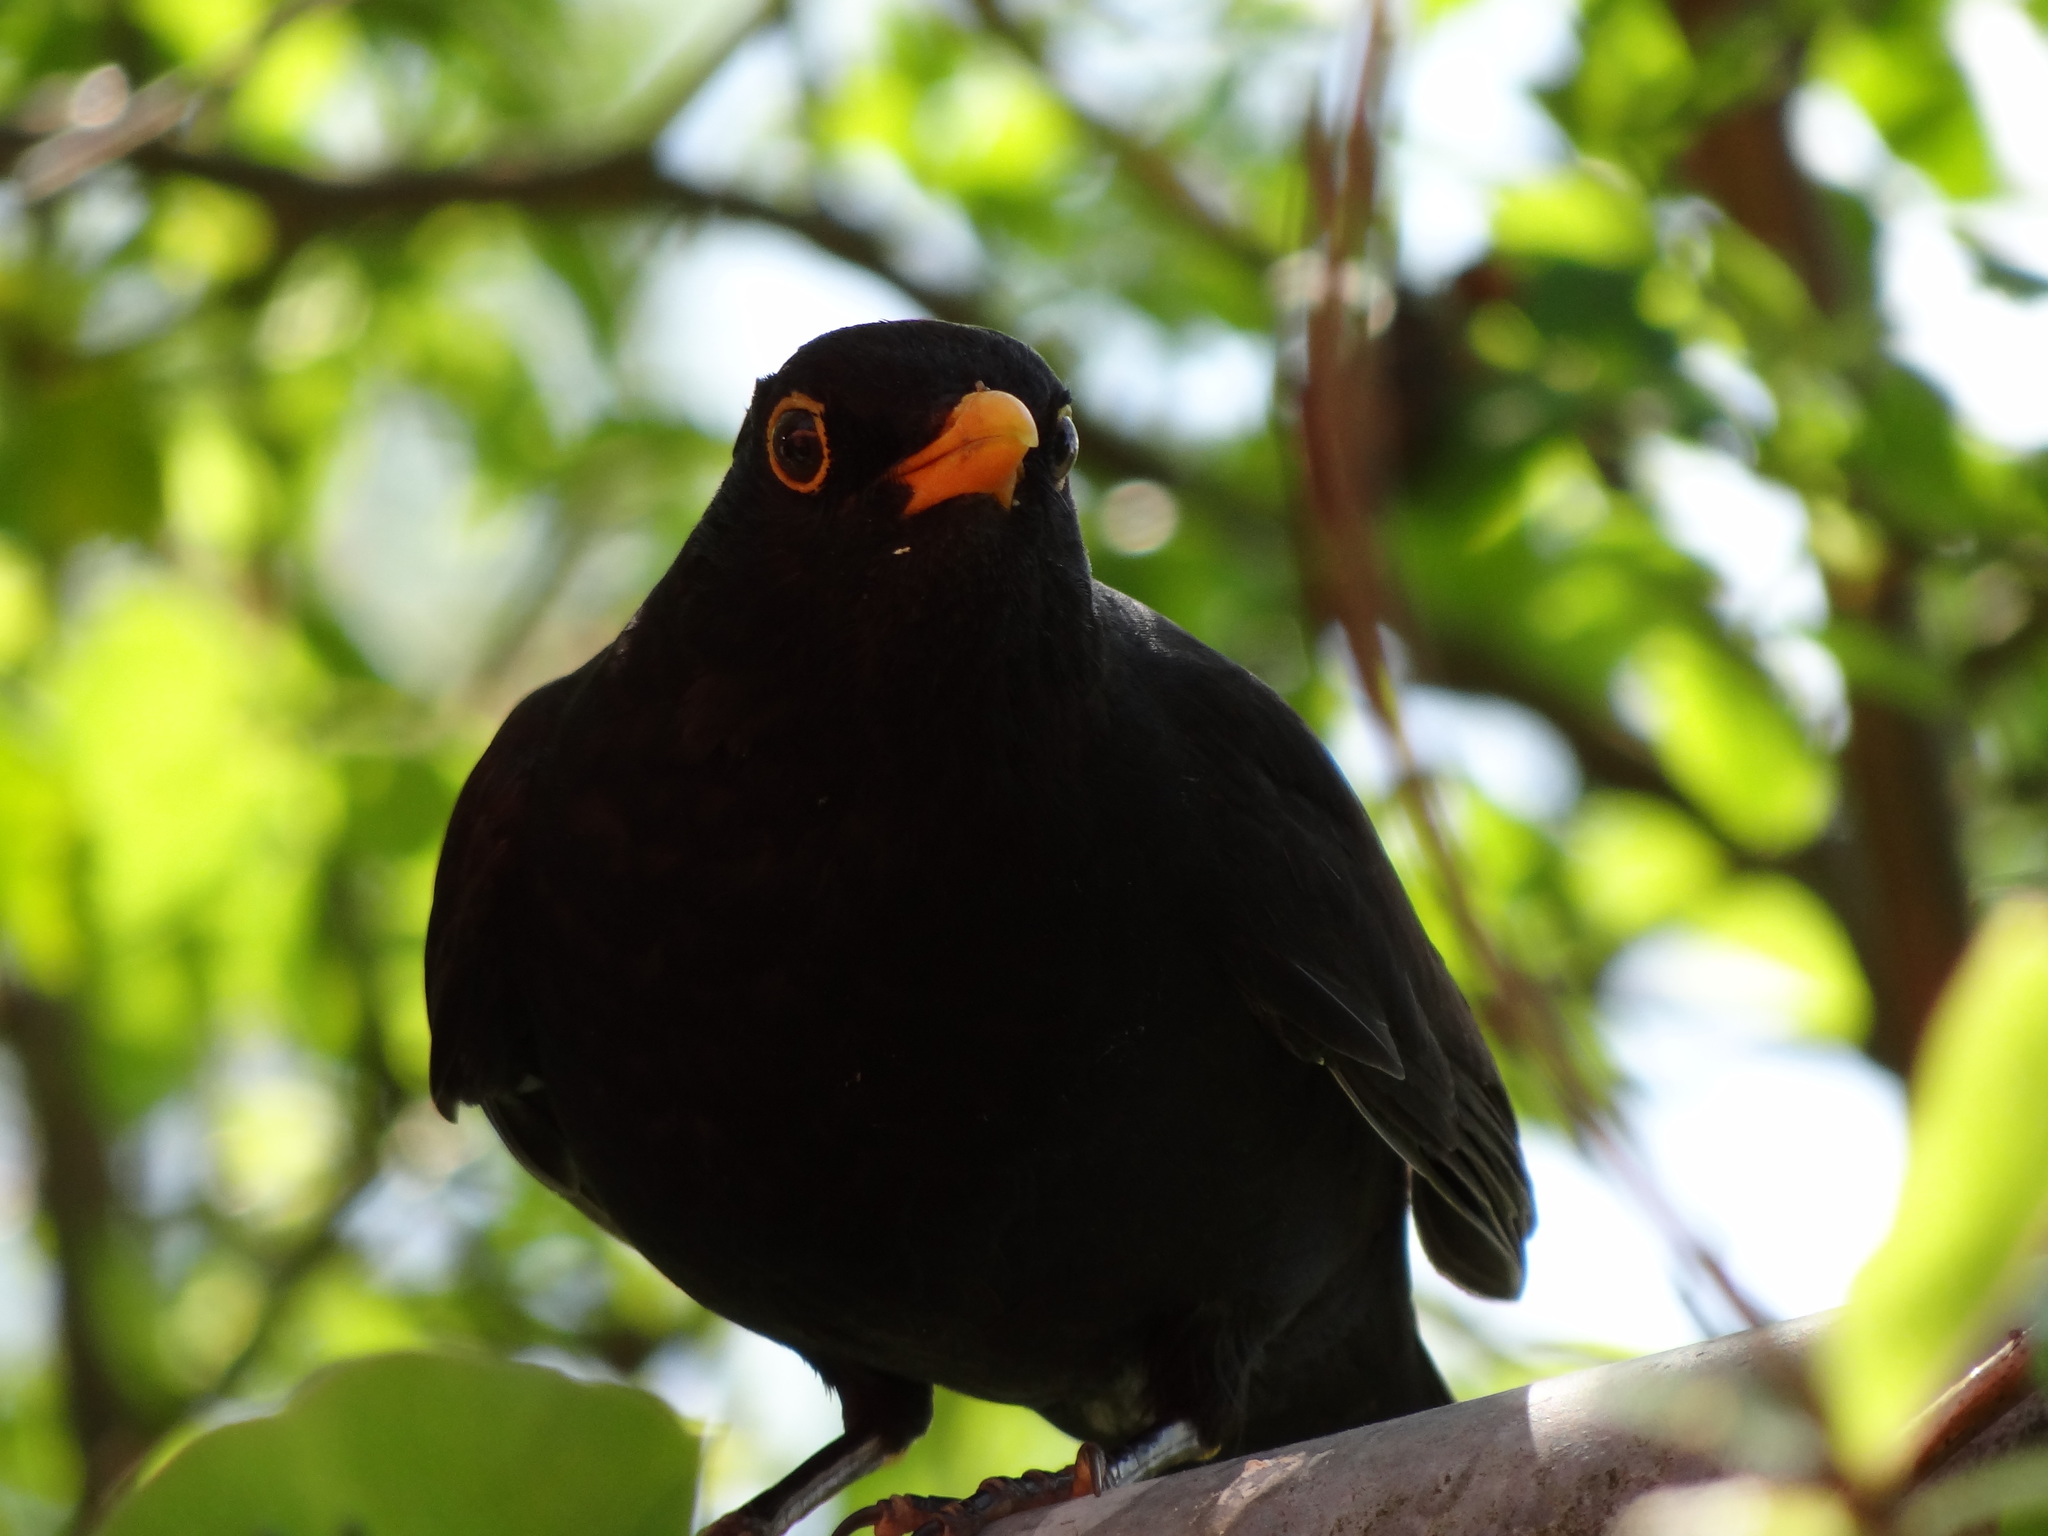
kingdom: Animalia
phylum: Chordata
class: Aves
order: Passeriformes
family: Turdidae
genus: Turdus
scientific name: Turdus merula
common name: Common blackbird
